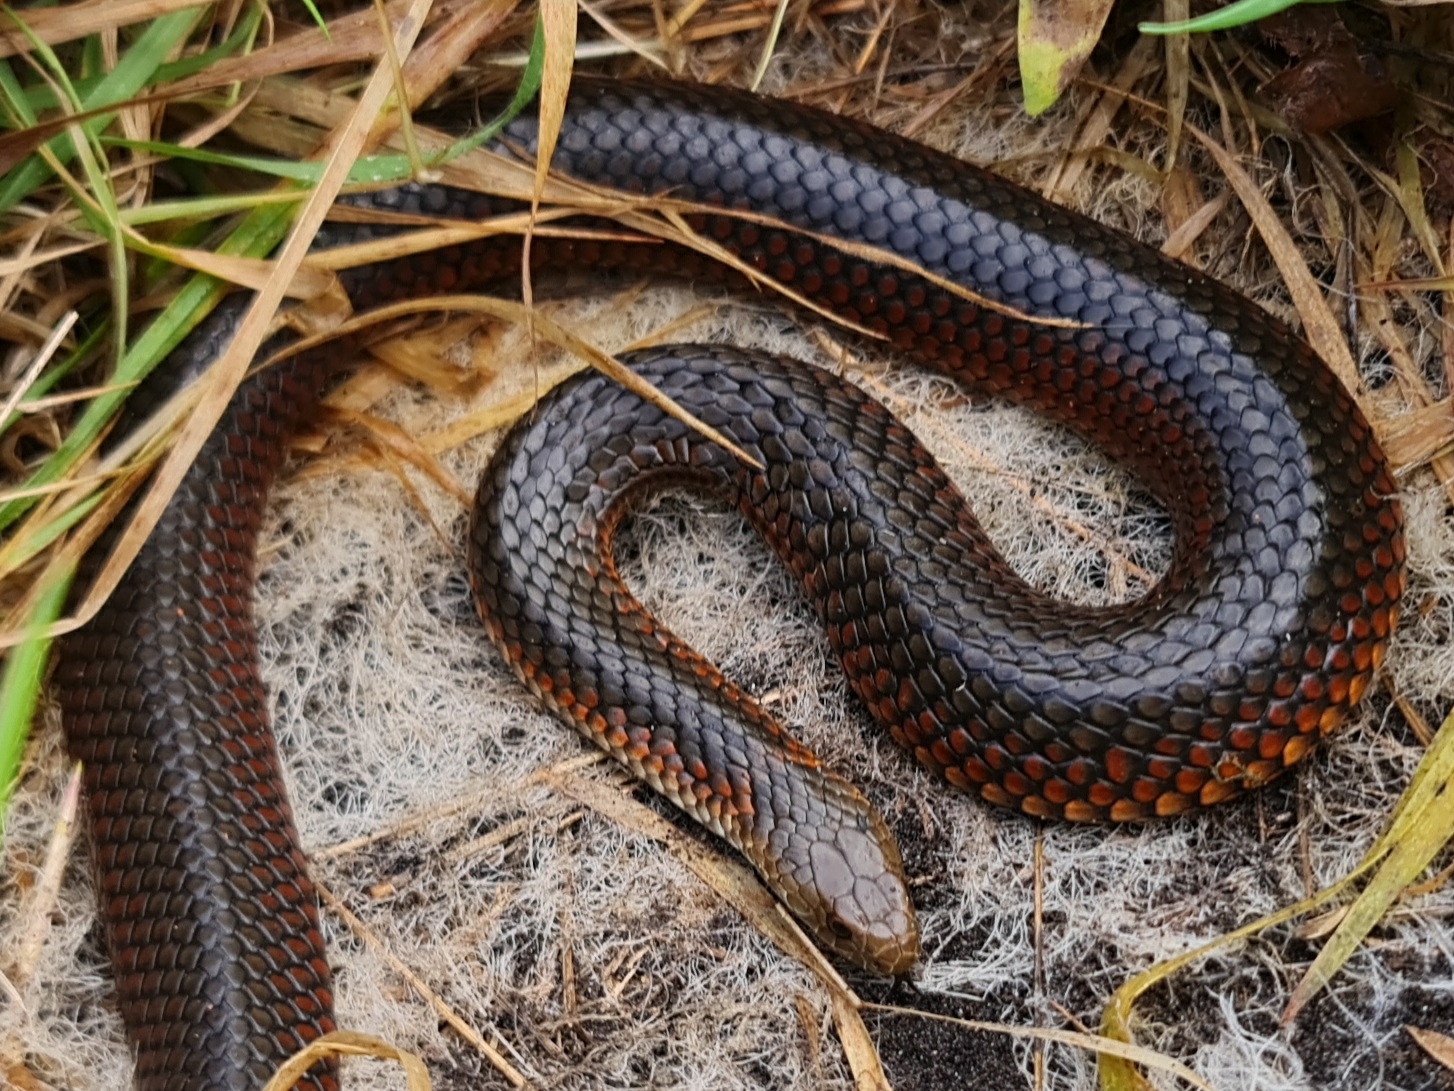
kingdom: Animalia
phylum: Chordata
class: Squamata
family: Elapidae
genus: Austrelaps
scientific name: Austrelaps superbus
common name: Copperhead snake
